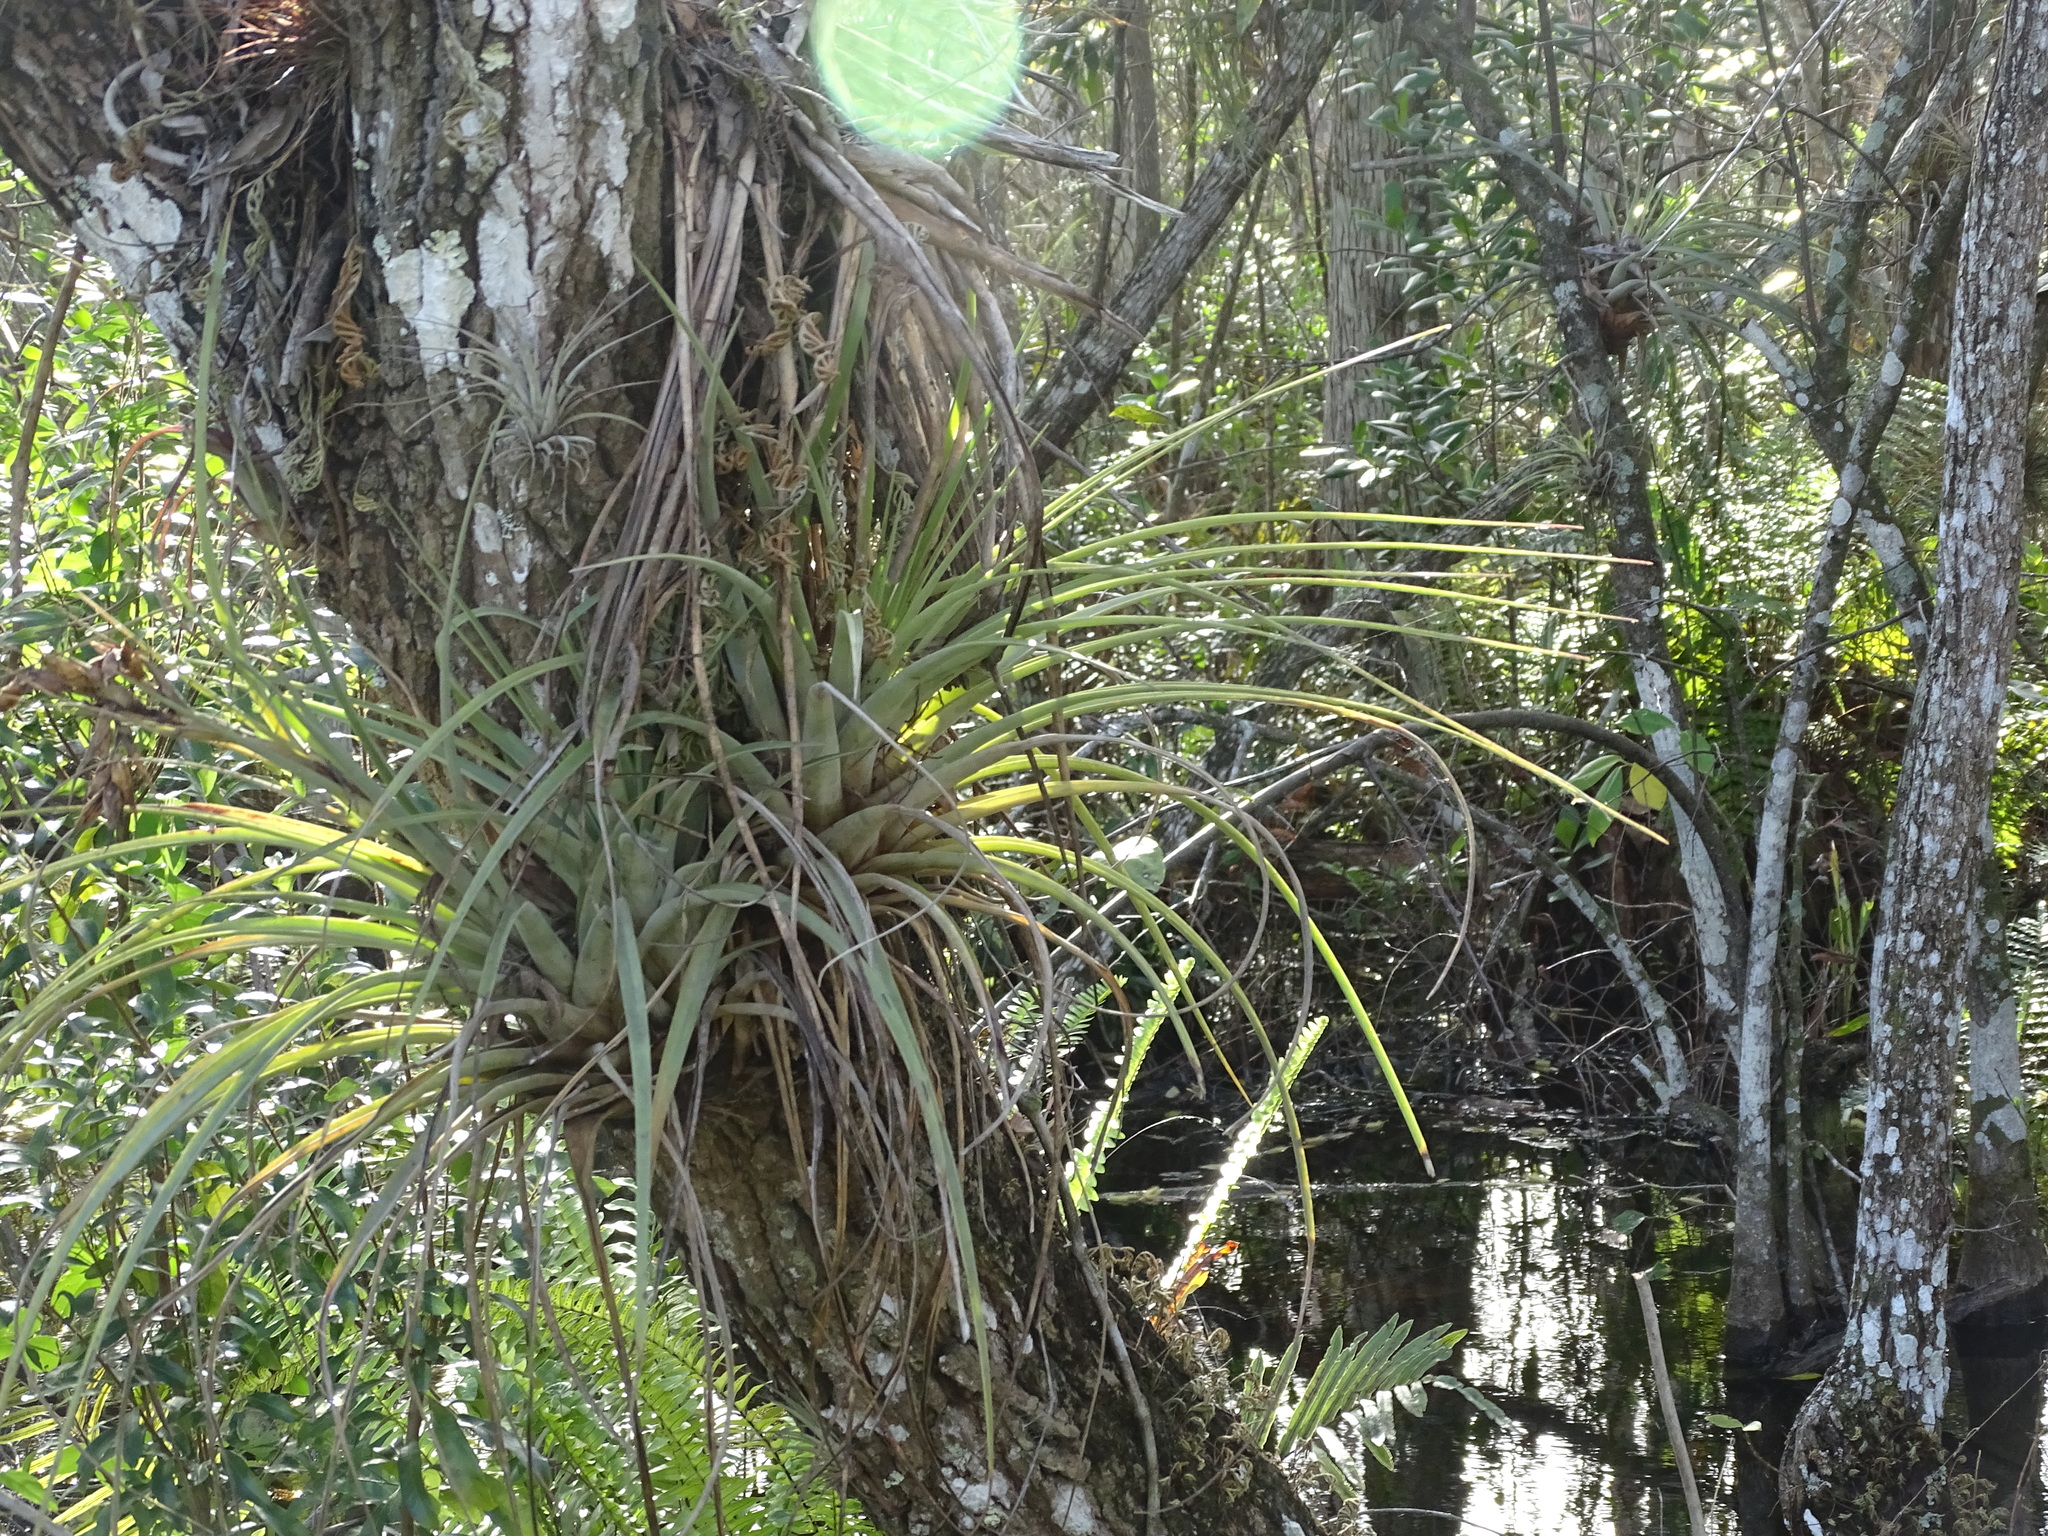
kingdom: Plantae
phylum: Tracheophyta
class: Liliopsida
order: Poales
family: Bromeliaceae
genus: Tillandsia
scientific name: Tillandsia fasciculata
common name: Giant airplant
